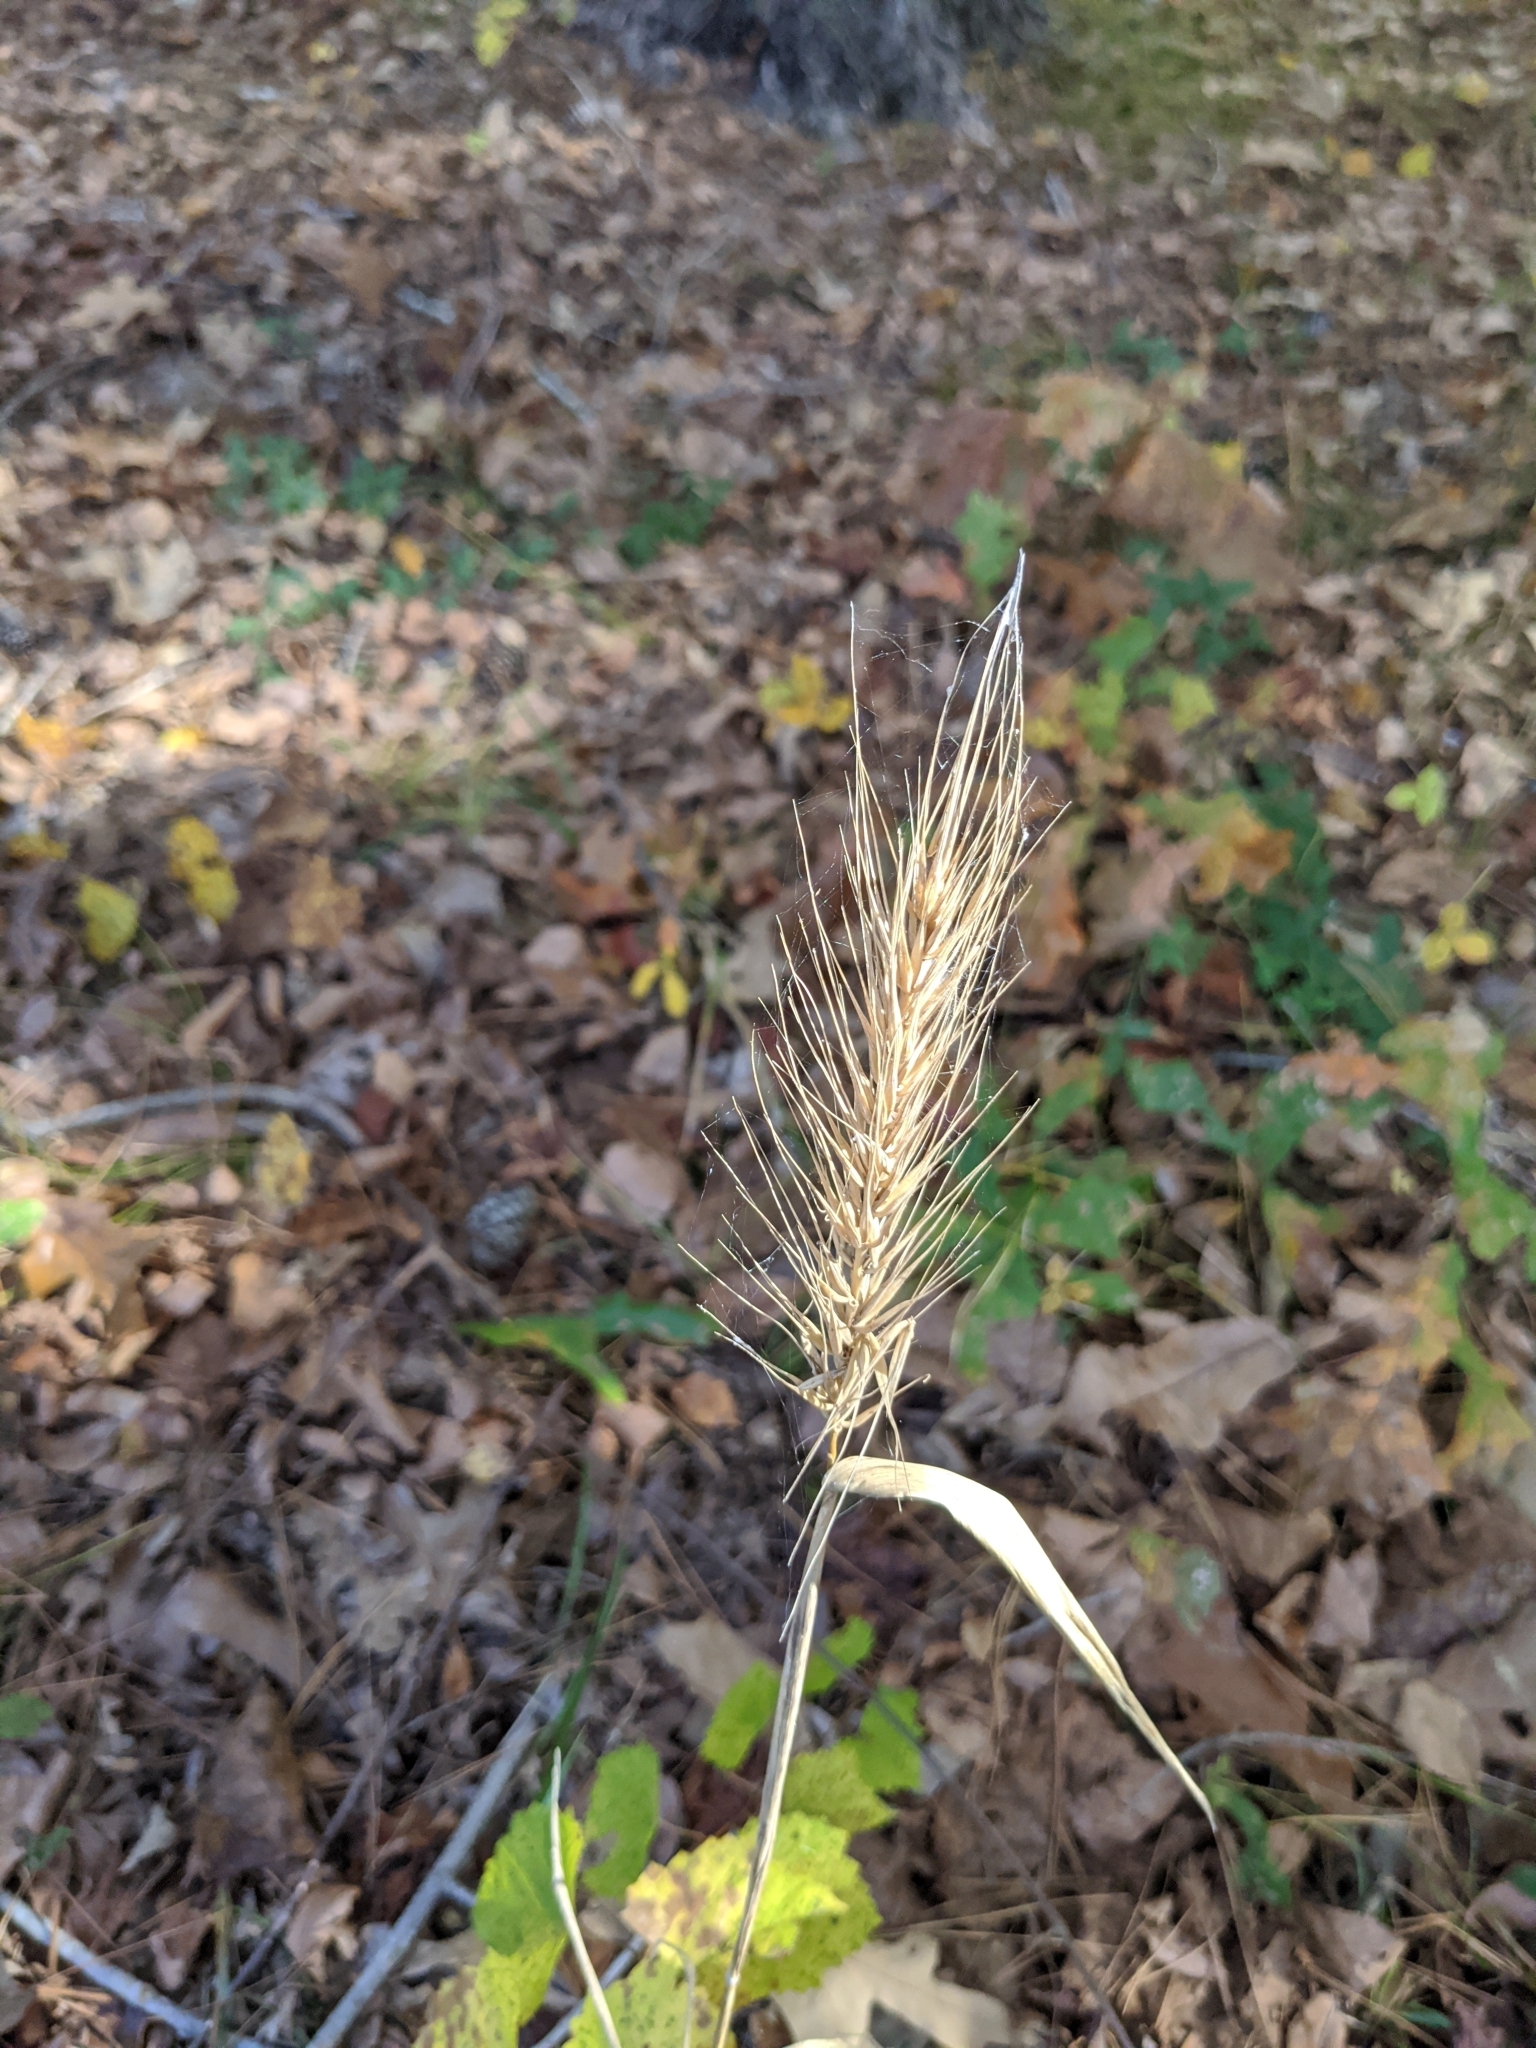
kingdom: Plantae
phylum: Tracheophyta
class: Liliopsida
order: Poales
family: Poaceae
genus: Elymus
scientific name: Elymus virginicus
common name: Common eastern wildrye
